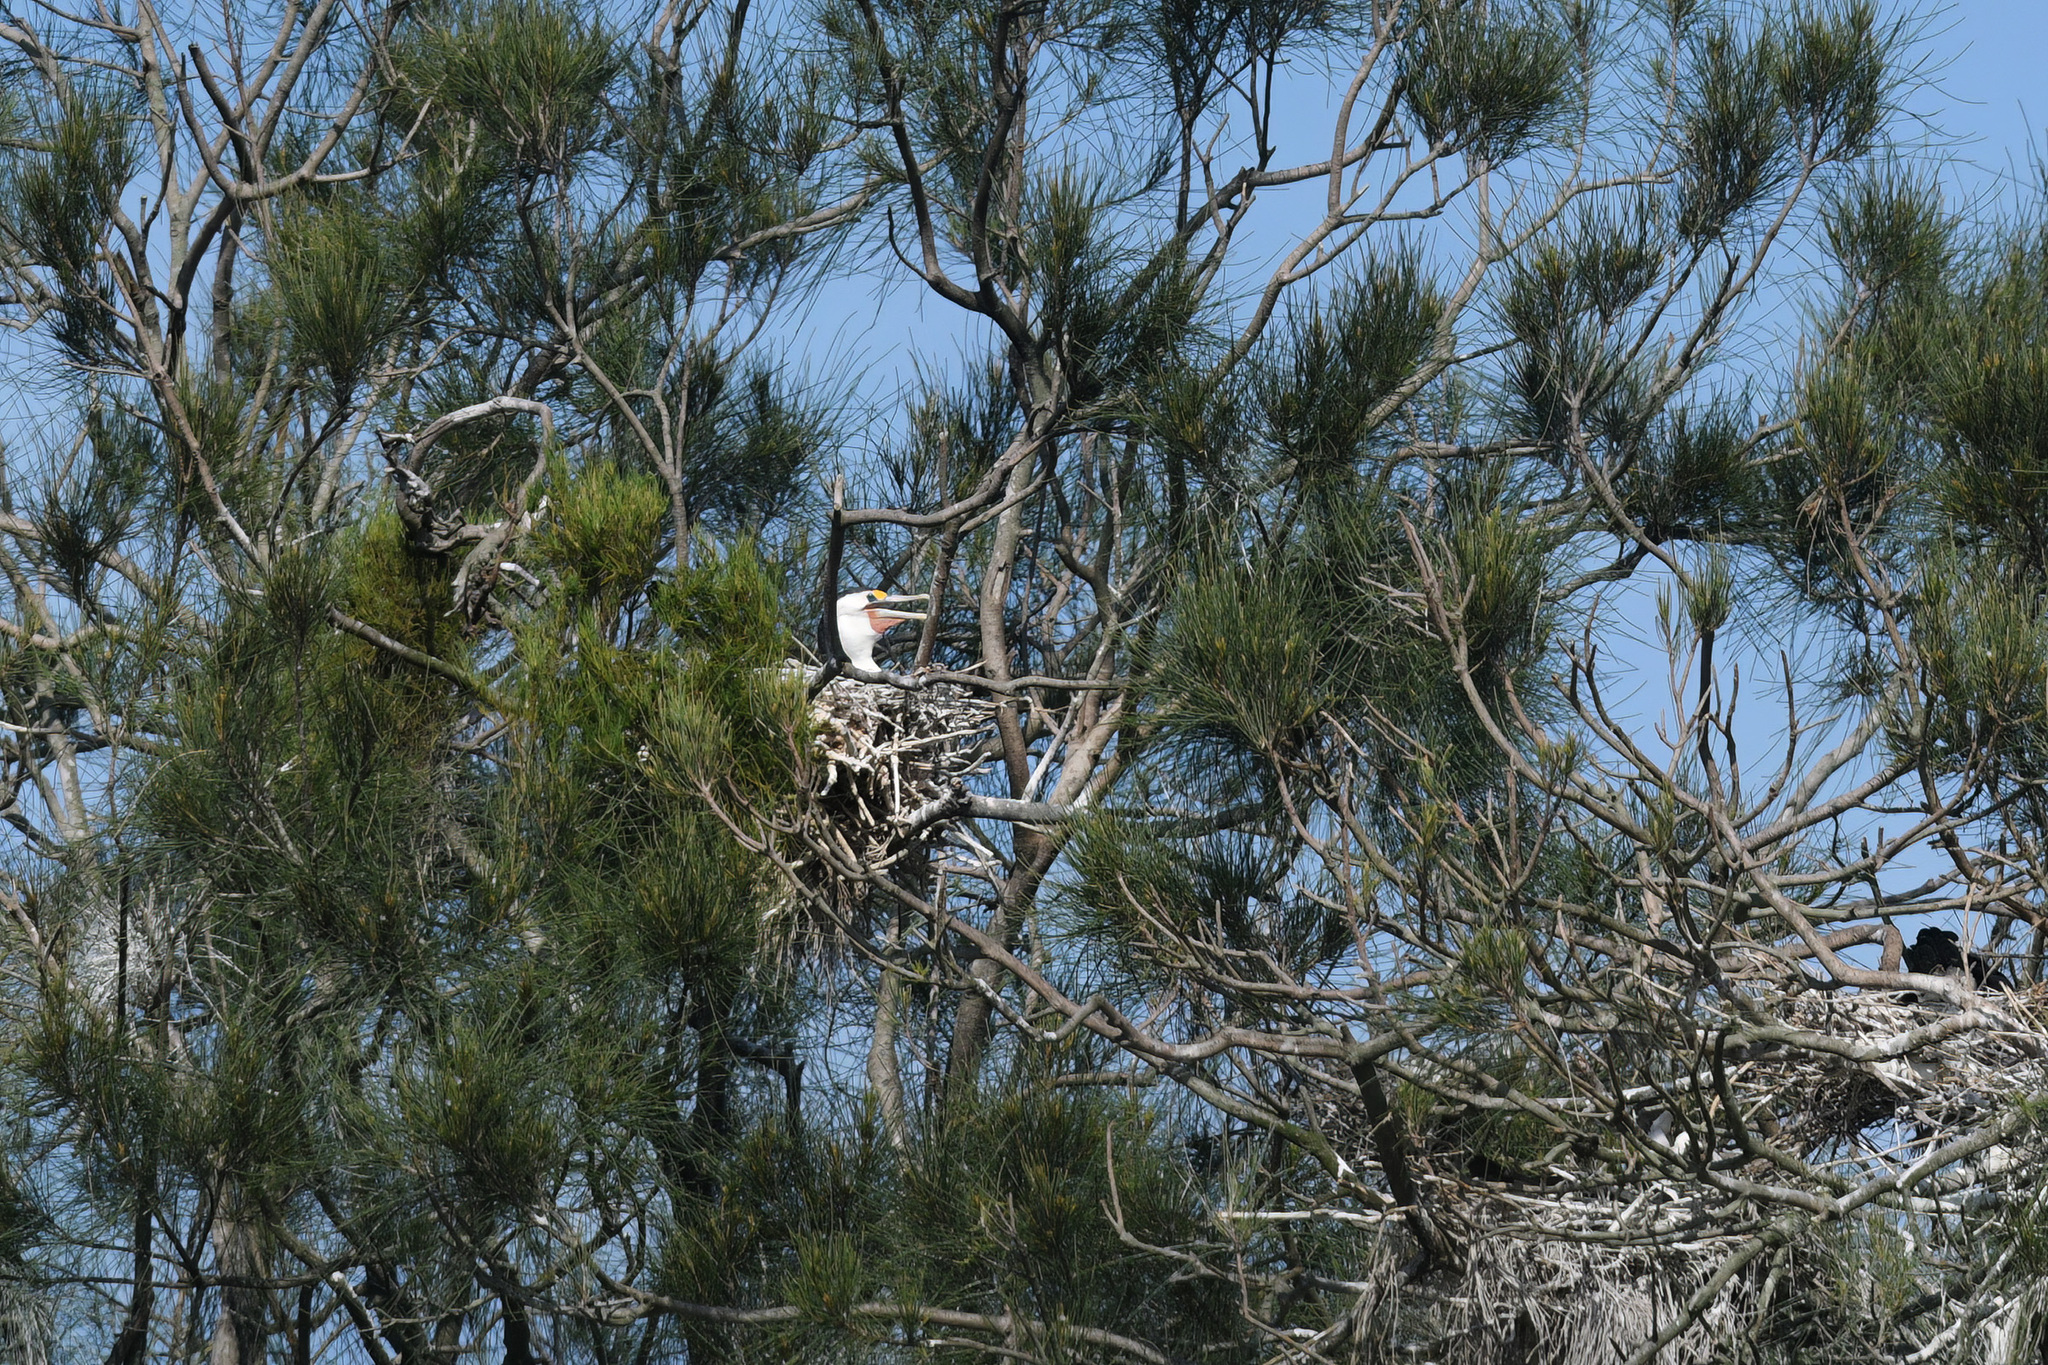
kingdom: Animalia
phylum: Chordata
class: Aves
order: Suliformes
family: Phalacrocoracidae
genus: Phalacrocorax
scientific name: Phalacrocorax varius
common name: Pied cormorant
